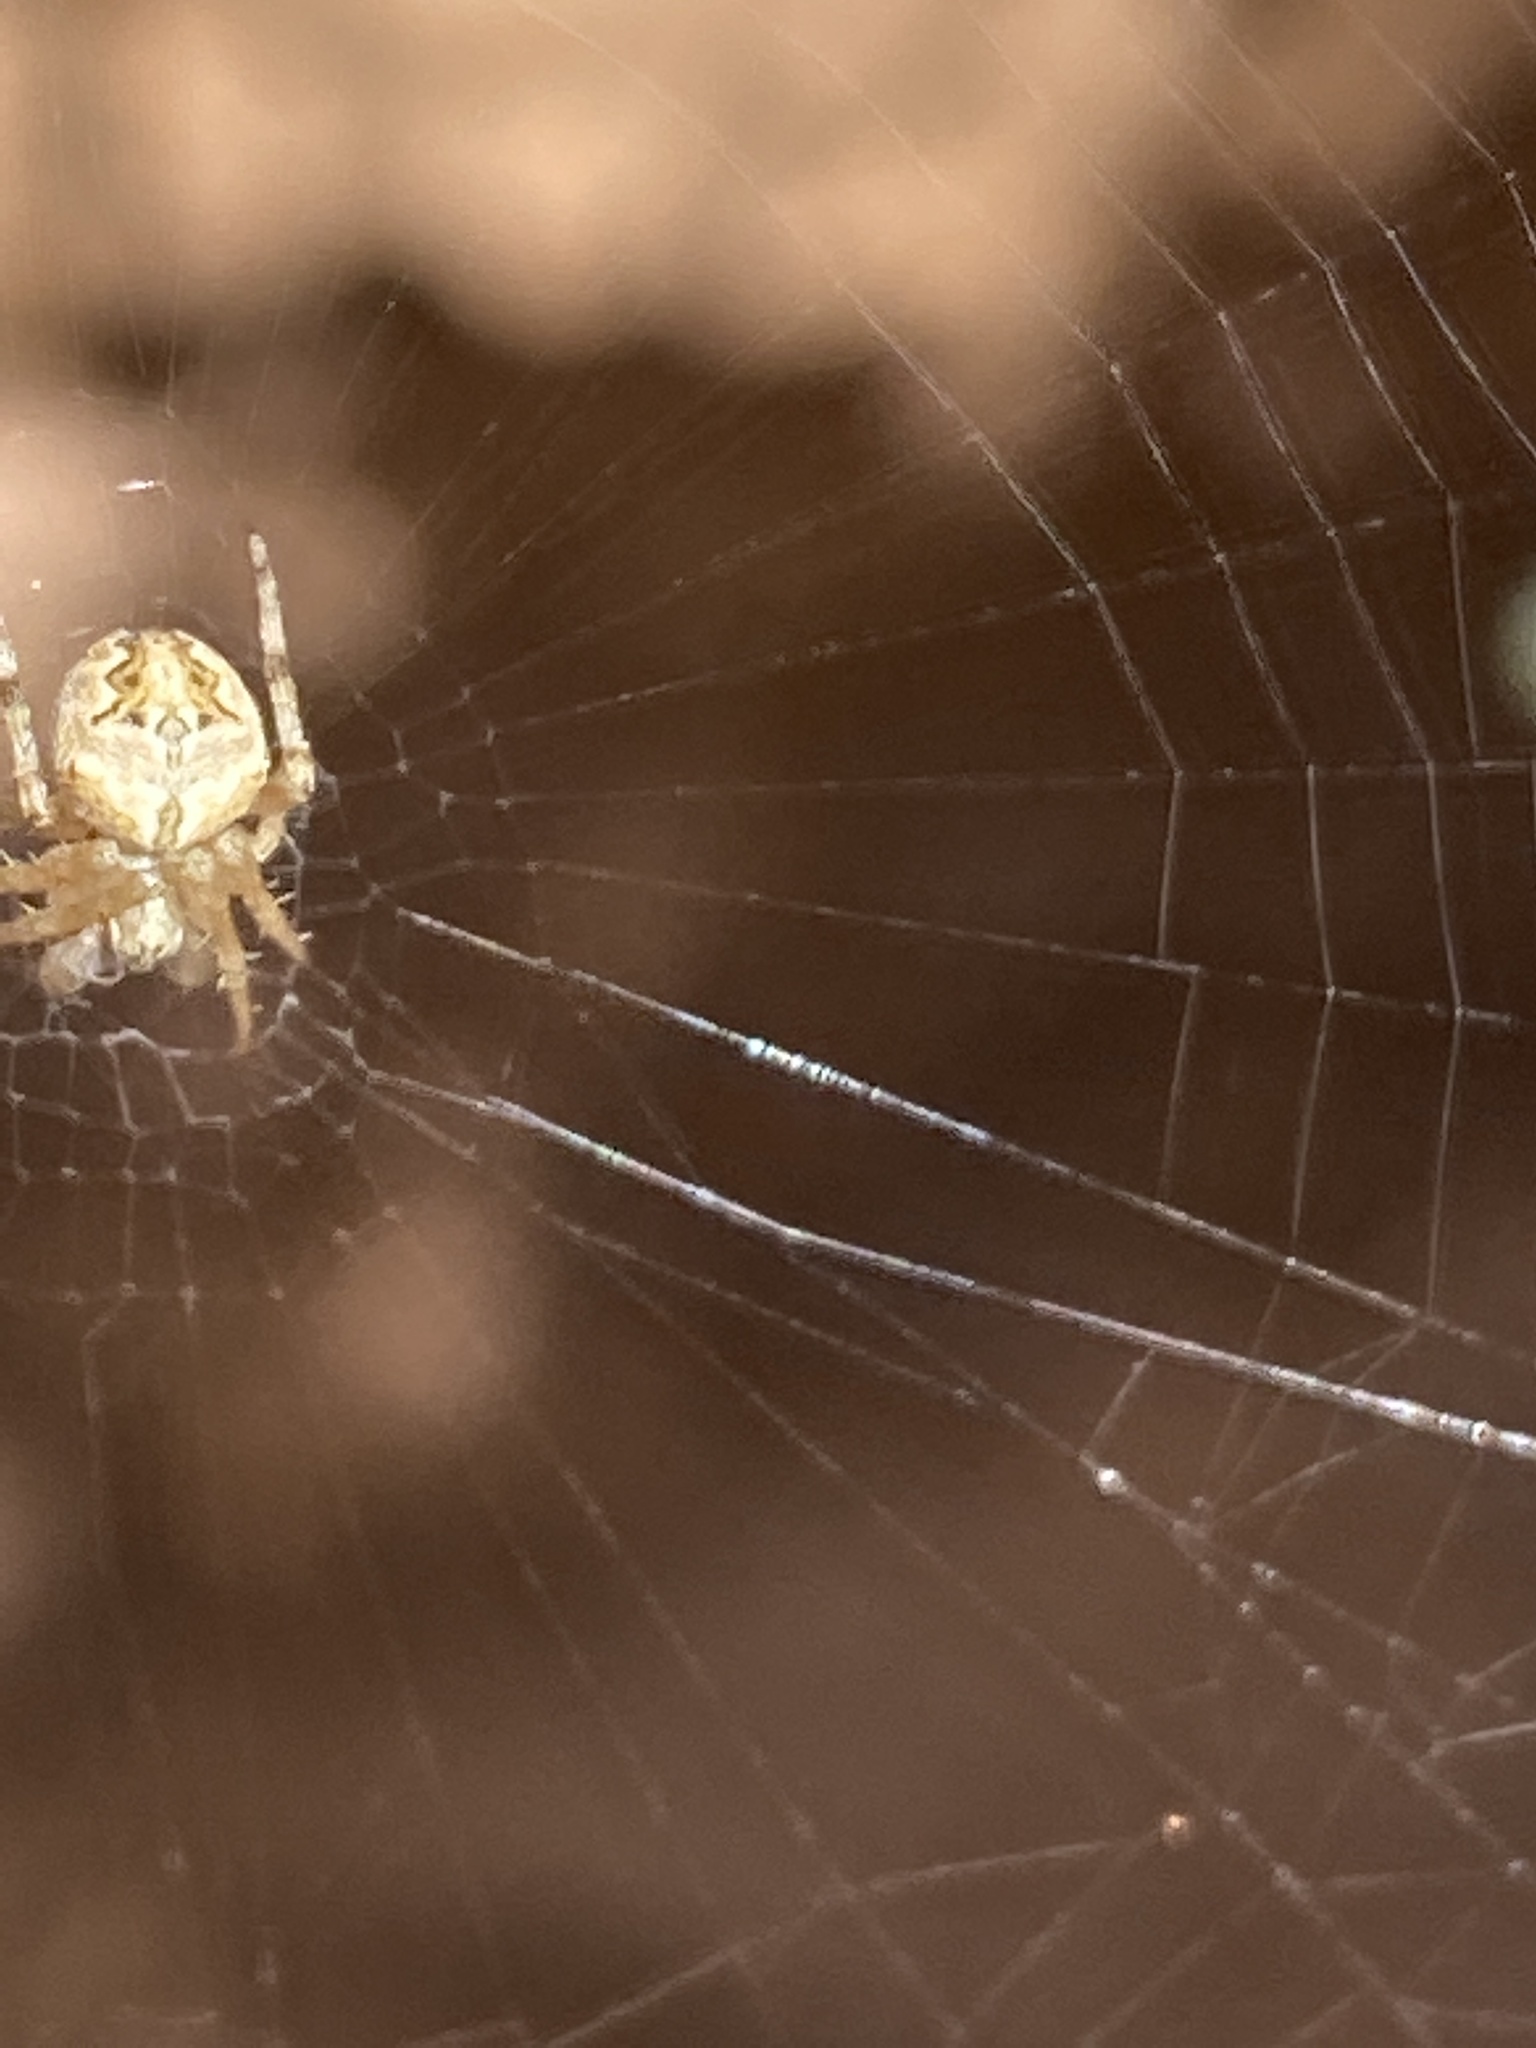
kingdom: Animalia
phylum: Arthropoda
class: Arachnida
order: Araneae
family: Araneidae
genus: Neoscona
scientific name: Neoscona subfusca
